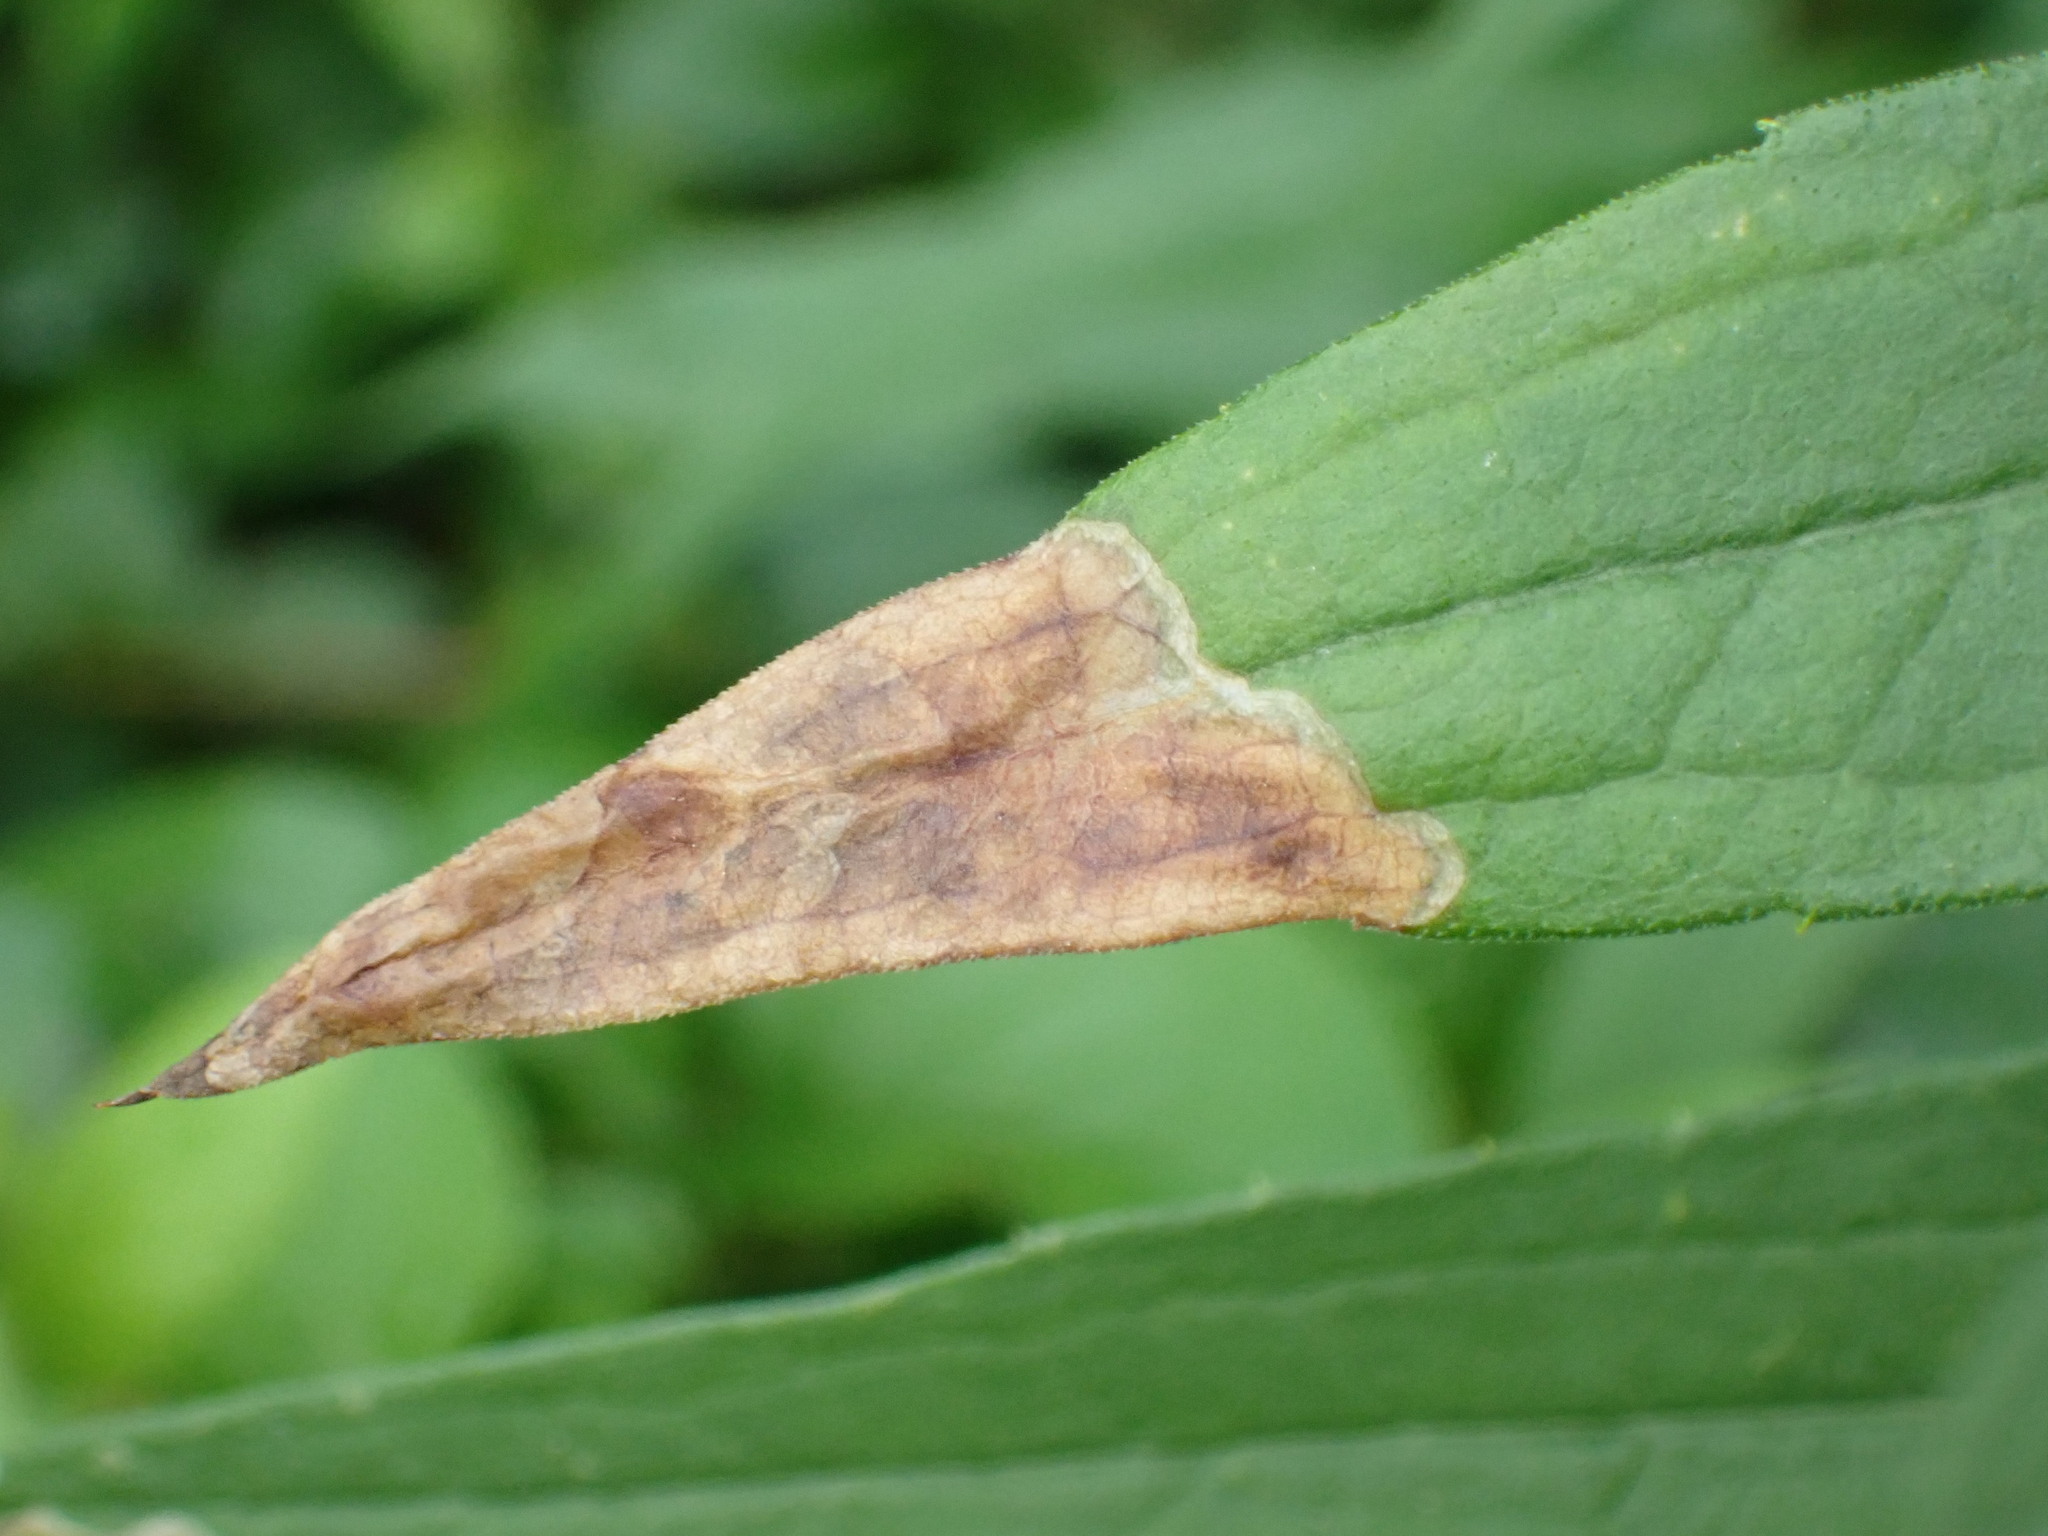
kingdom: Animalia
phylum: Arthropoda
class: Insecta
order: Diptera
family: Agromyzidae
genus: Nemorimyza
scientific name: Nemorimyza posticata
